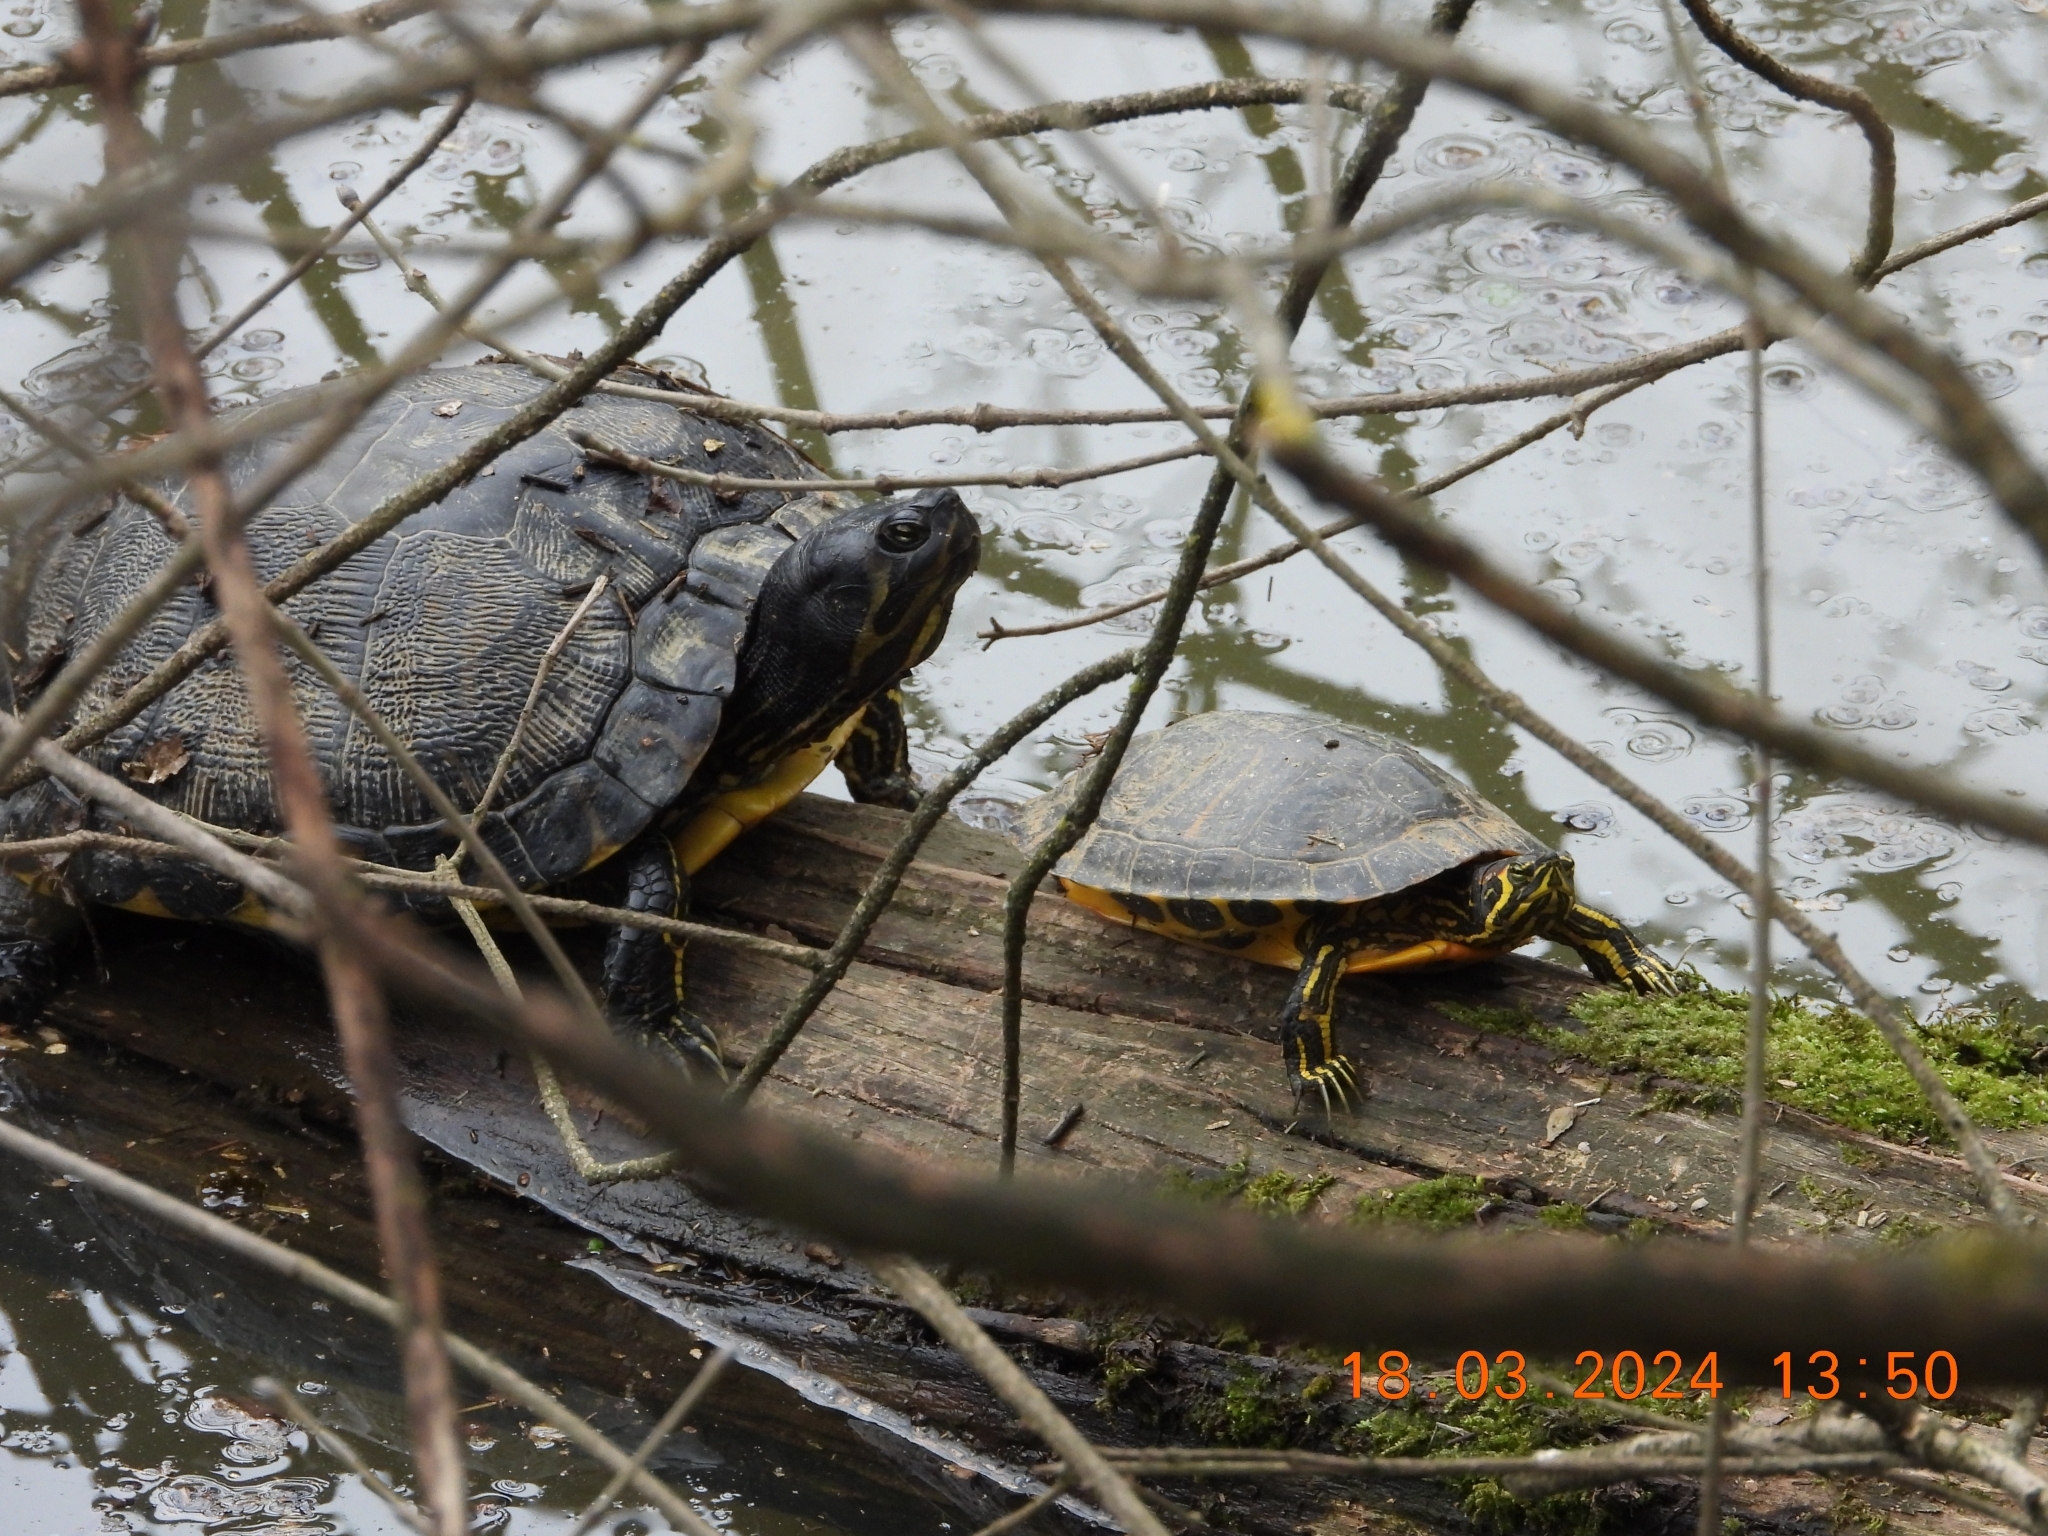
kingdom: Animalia
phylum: Chordata
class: Testudines
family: Emydidae
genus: Trachemys
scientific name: Trachemys scripta
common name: Slider
